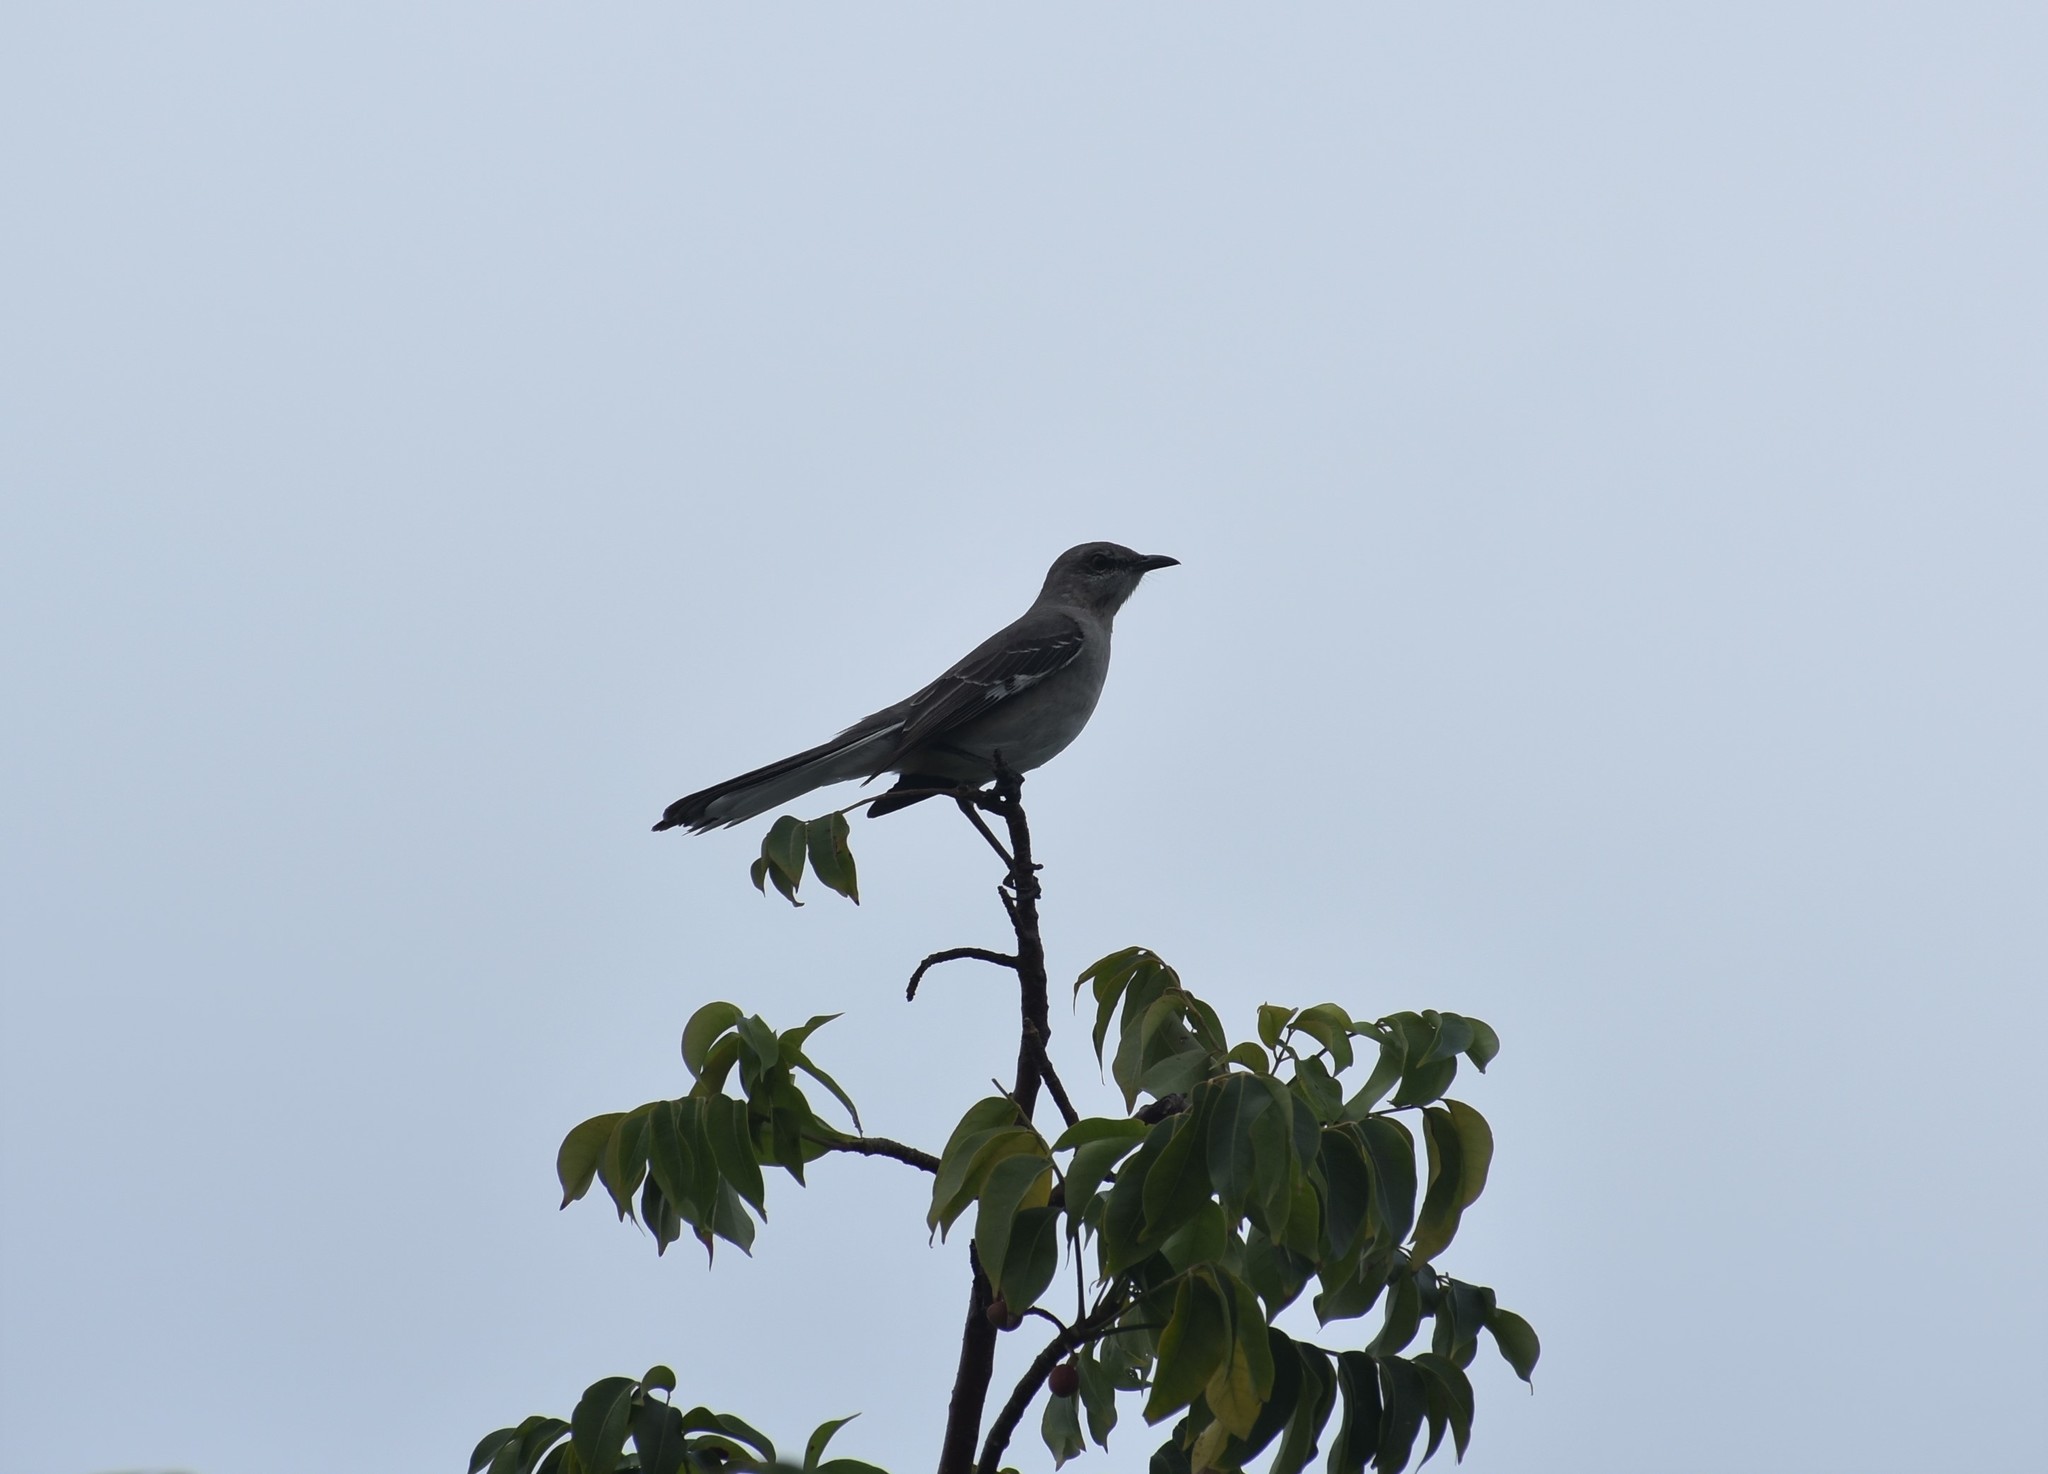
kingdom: Animalia
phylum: Chordata
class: Aves
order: Passeriformes
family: Mimidae
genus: Mimus
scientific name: Mimus polyglottos
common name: Northern mockingbird
